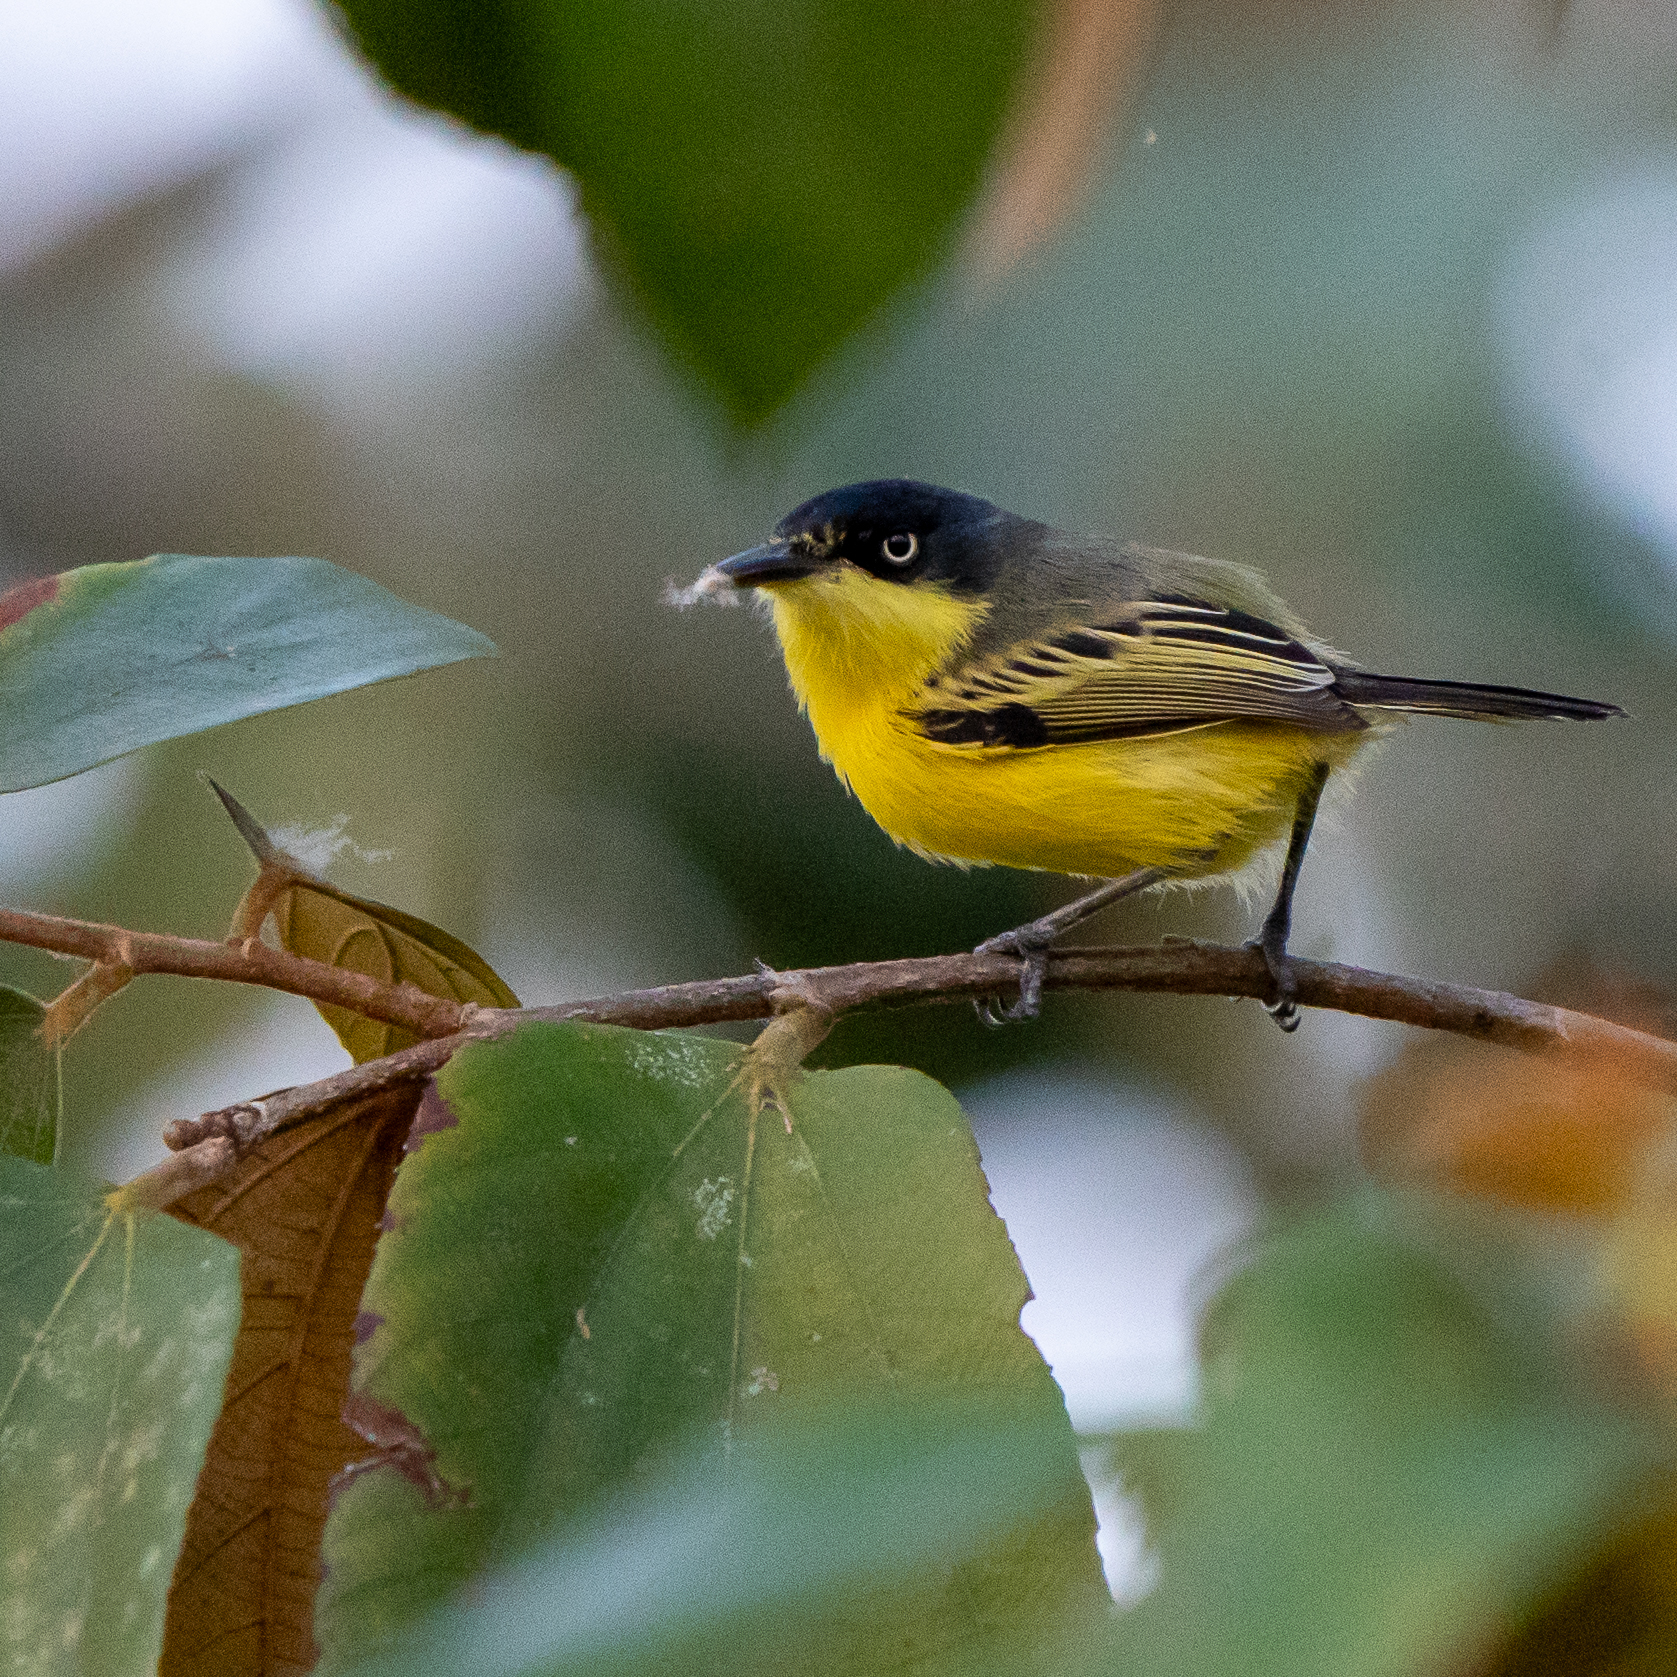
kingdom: Animalia
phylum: Chordata
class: Aves
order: Passeriformes
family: Tyrannidae
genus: Todirostrum
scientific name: Todirostrum cinereum
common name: Common tody-flycatcher
